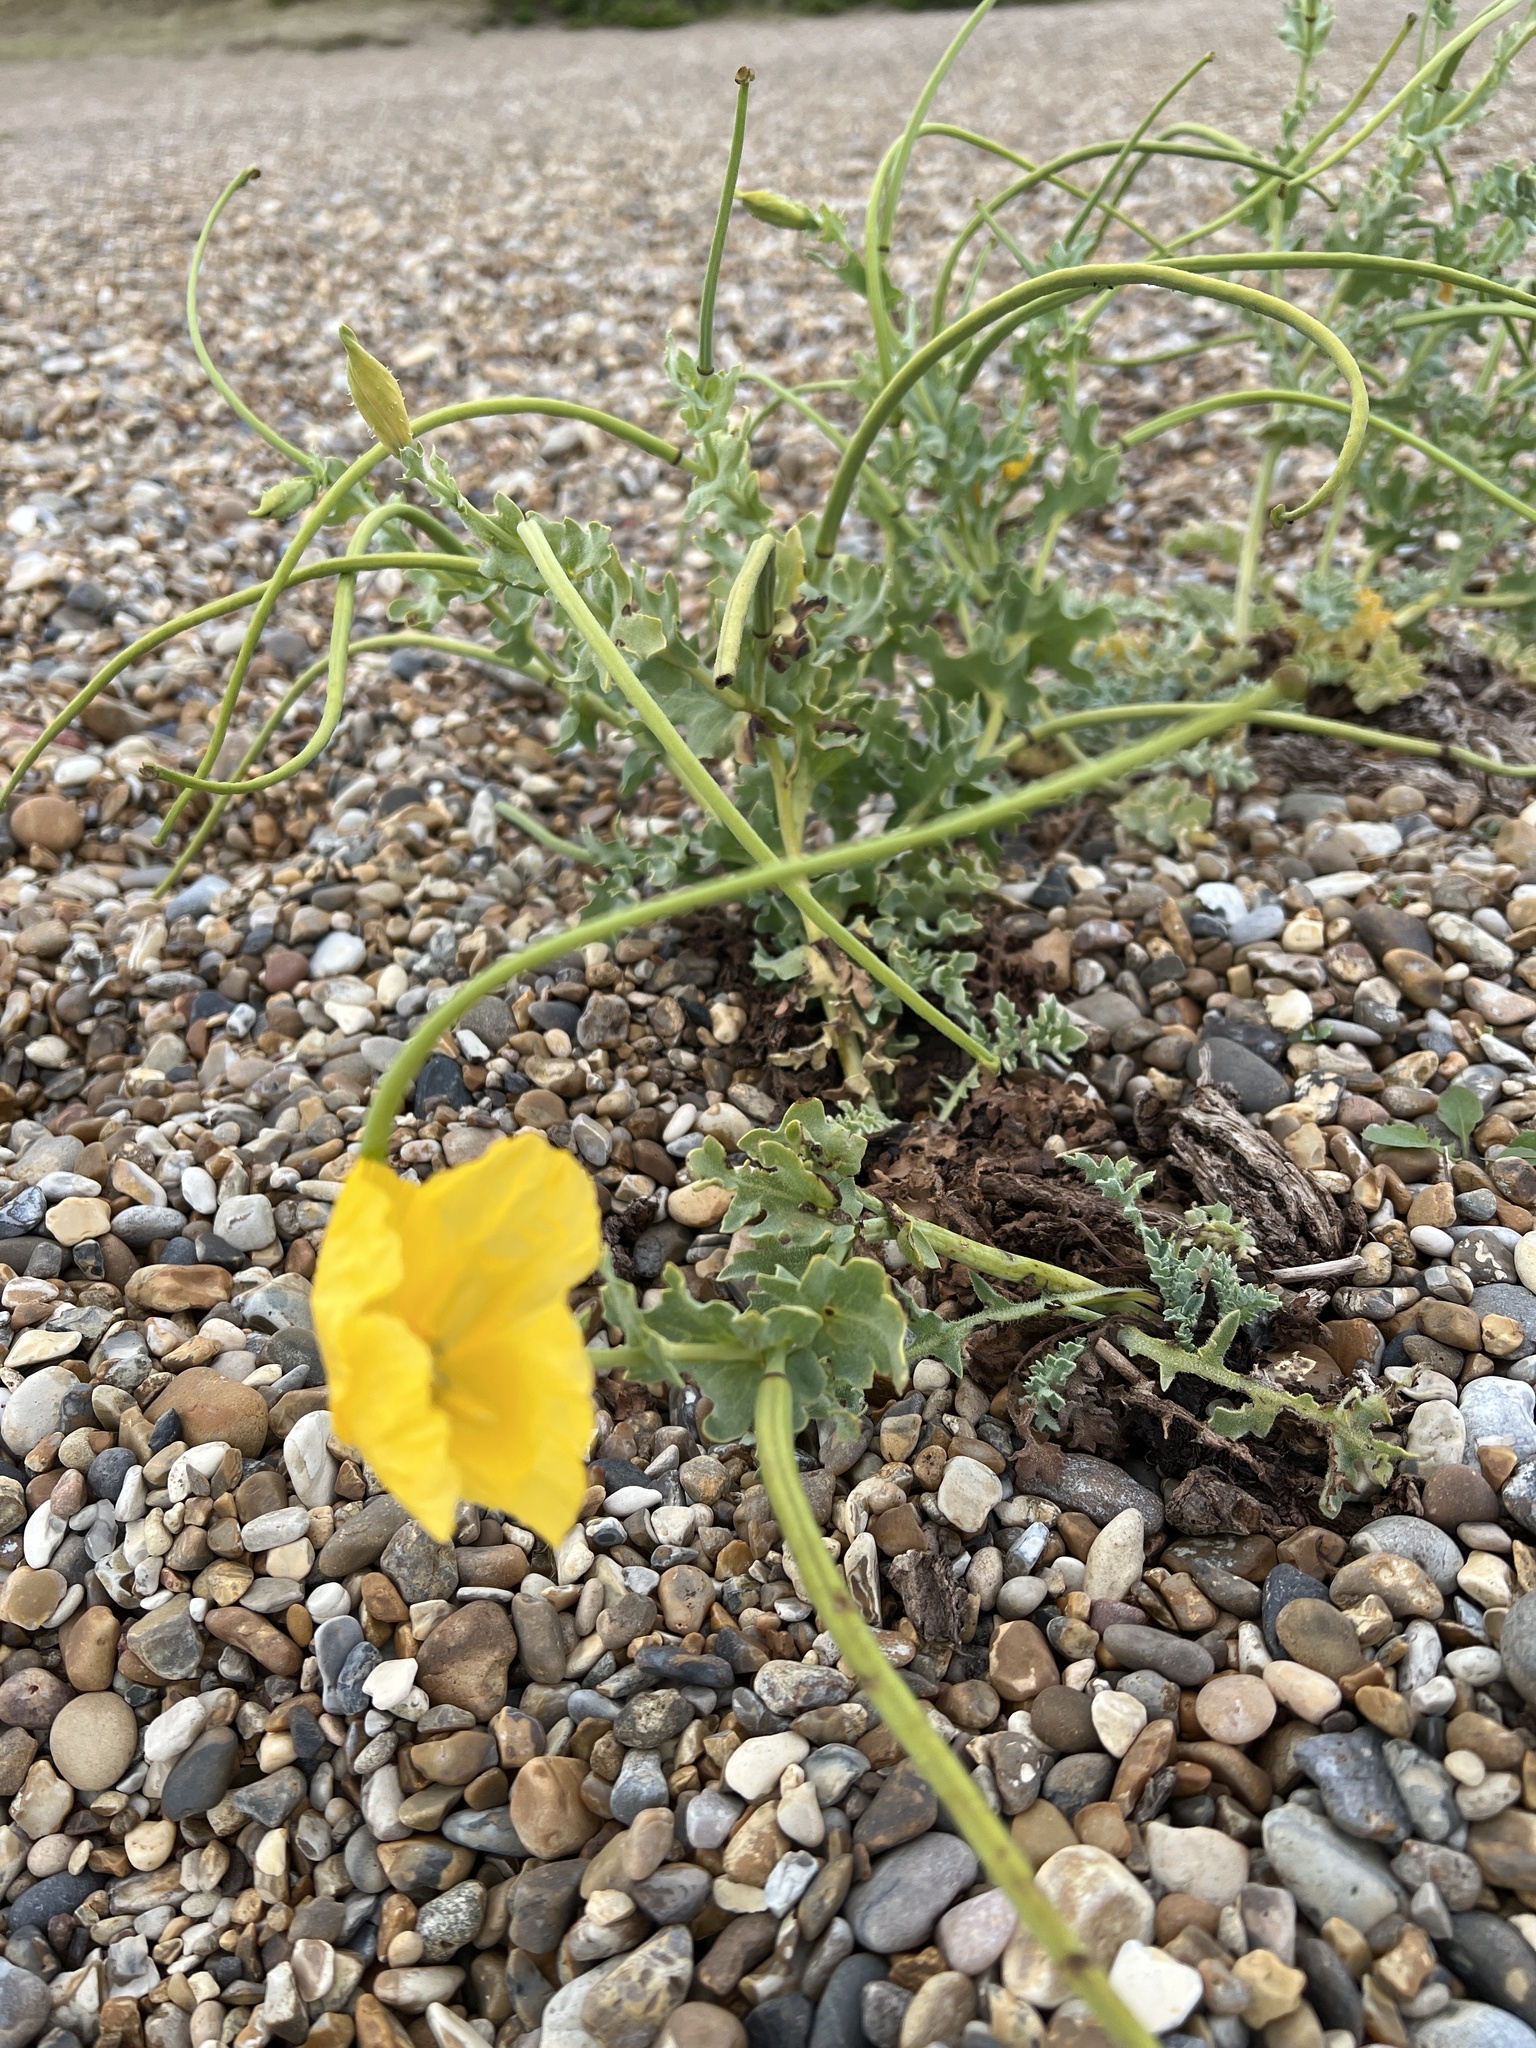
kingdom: Plantae
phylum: Tracheophyta
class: Magnoliopsida
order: Ranunculales
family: Papaveraceae
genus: Glaucium
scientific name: Glaucium flavum
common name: Yellow horned-poppy
